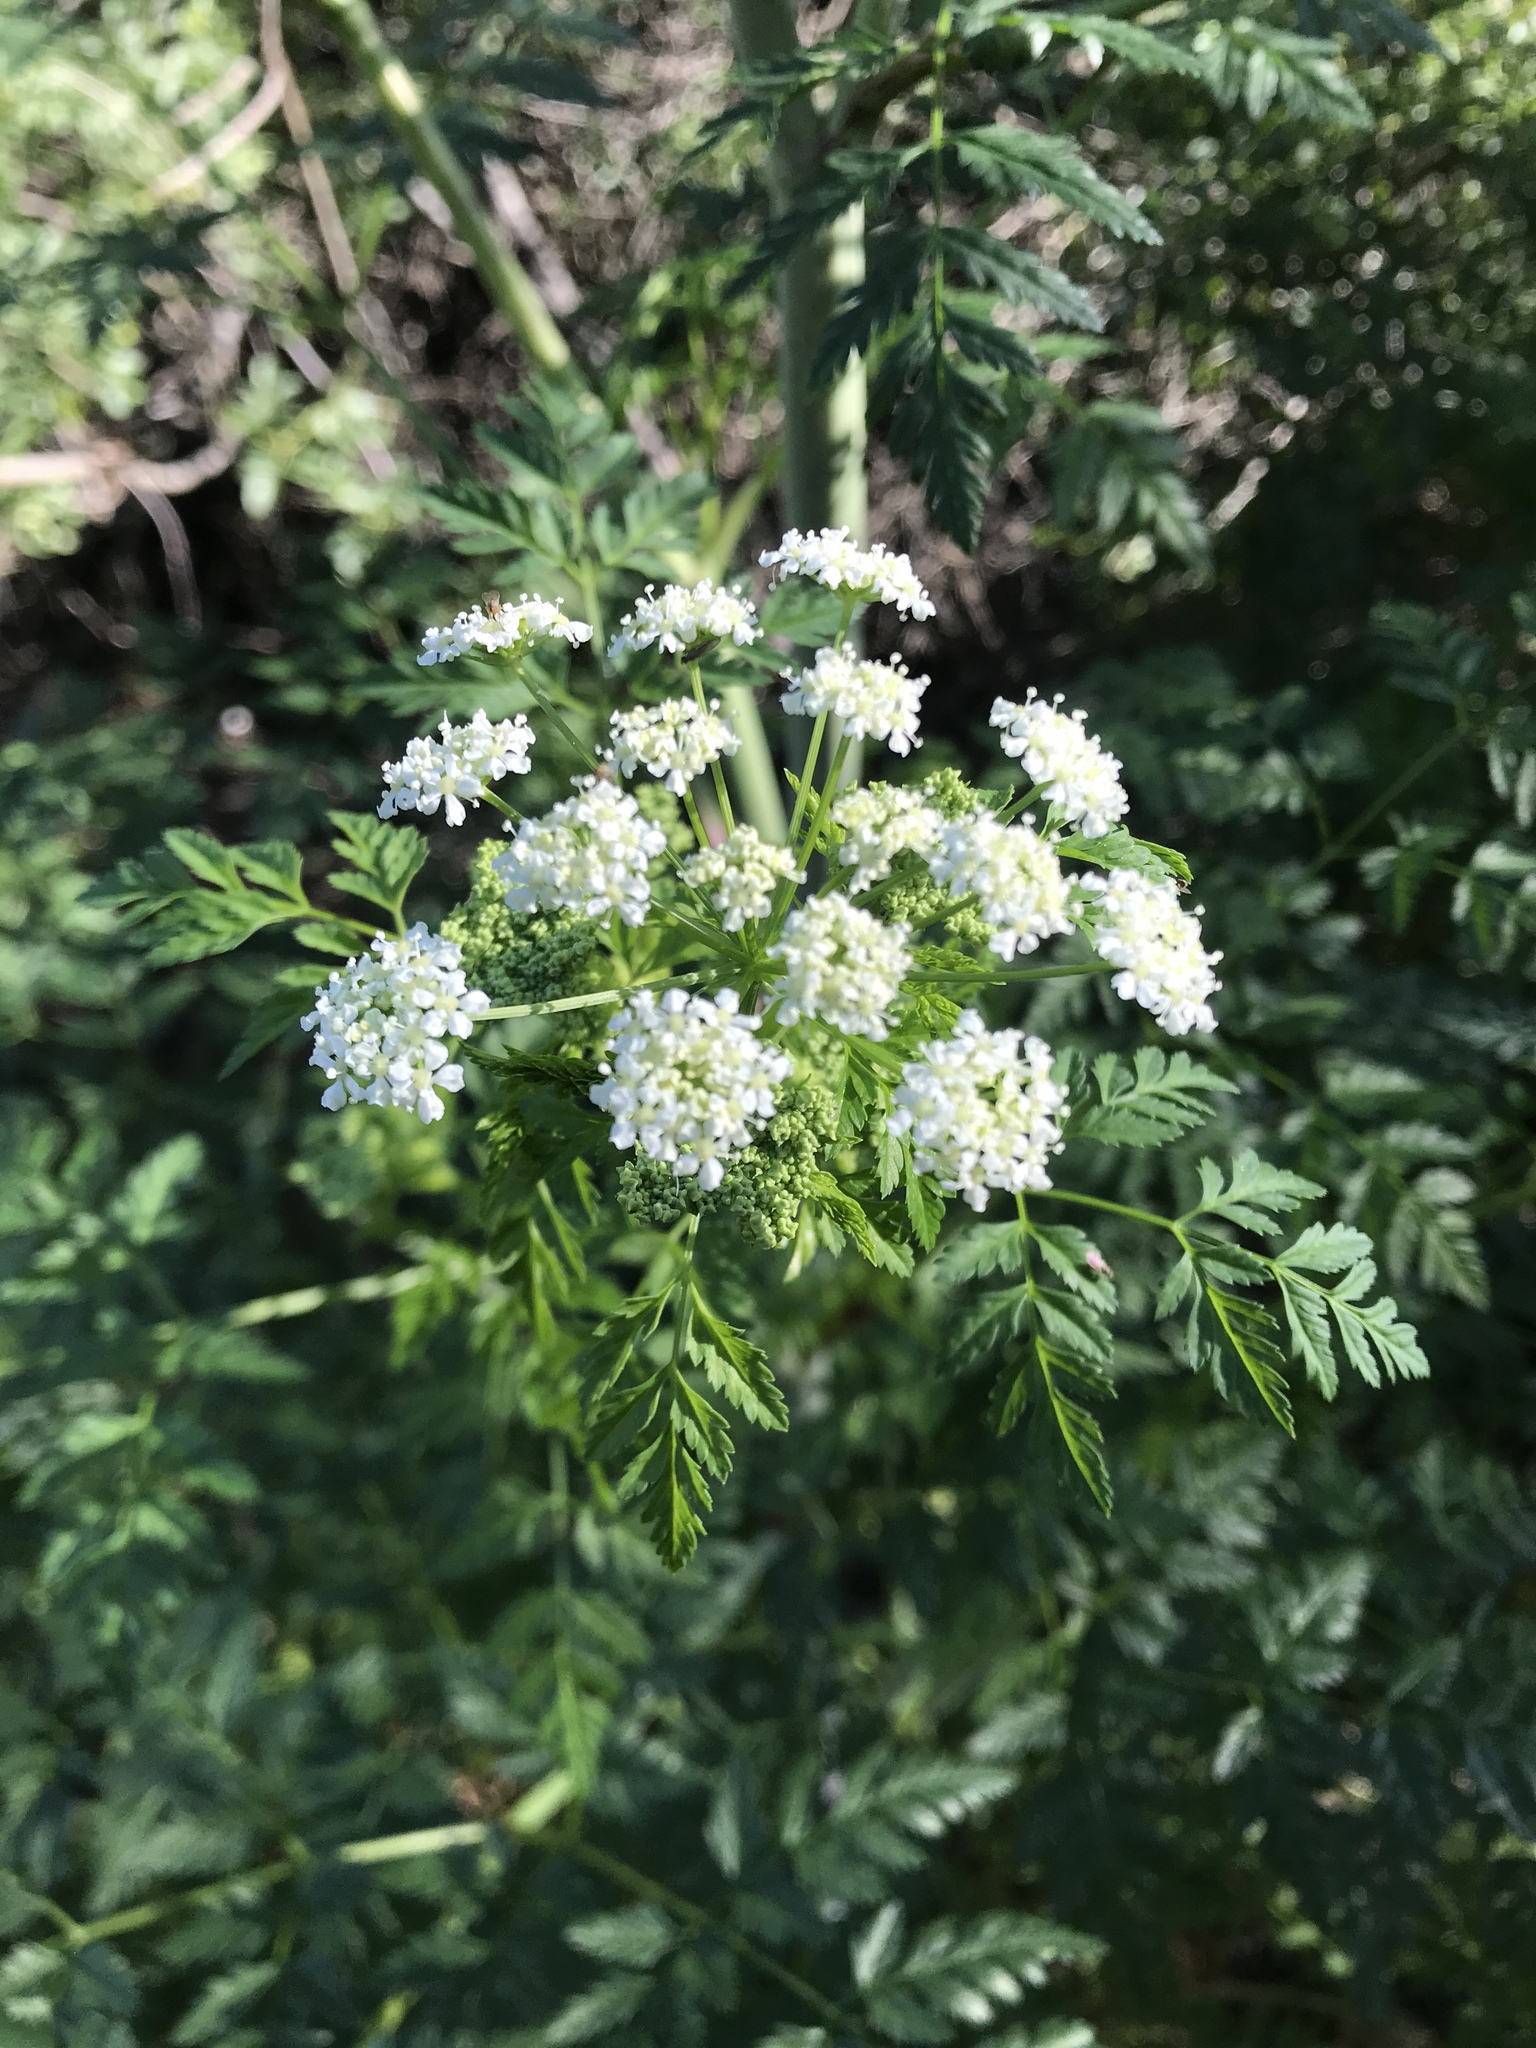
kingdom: Plantae
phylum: Tracheophyta
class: Magnoliopsida
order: Apiales
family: Apiaceae
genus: Conium
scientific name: Conium maculatum
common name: Hemlock
